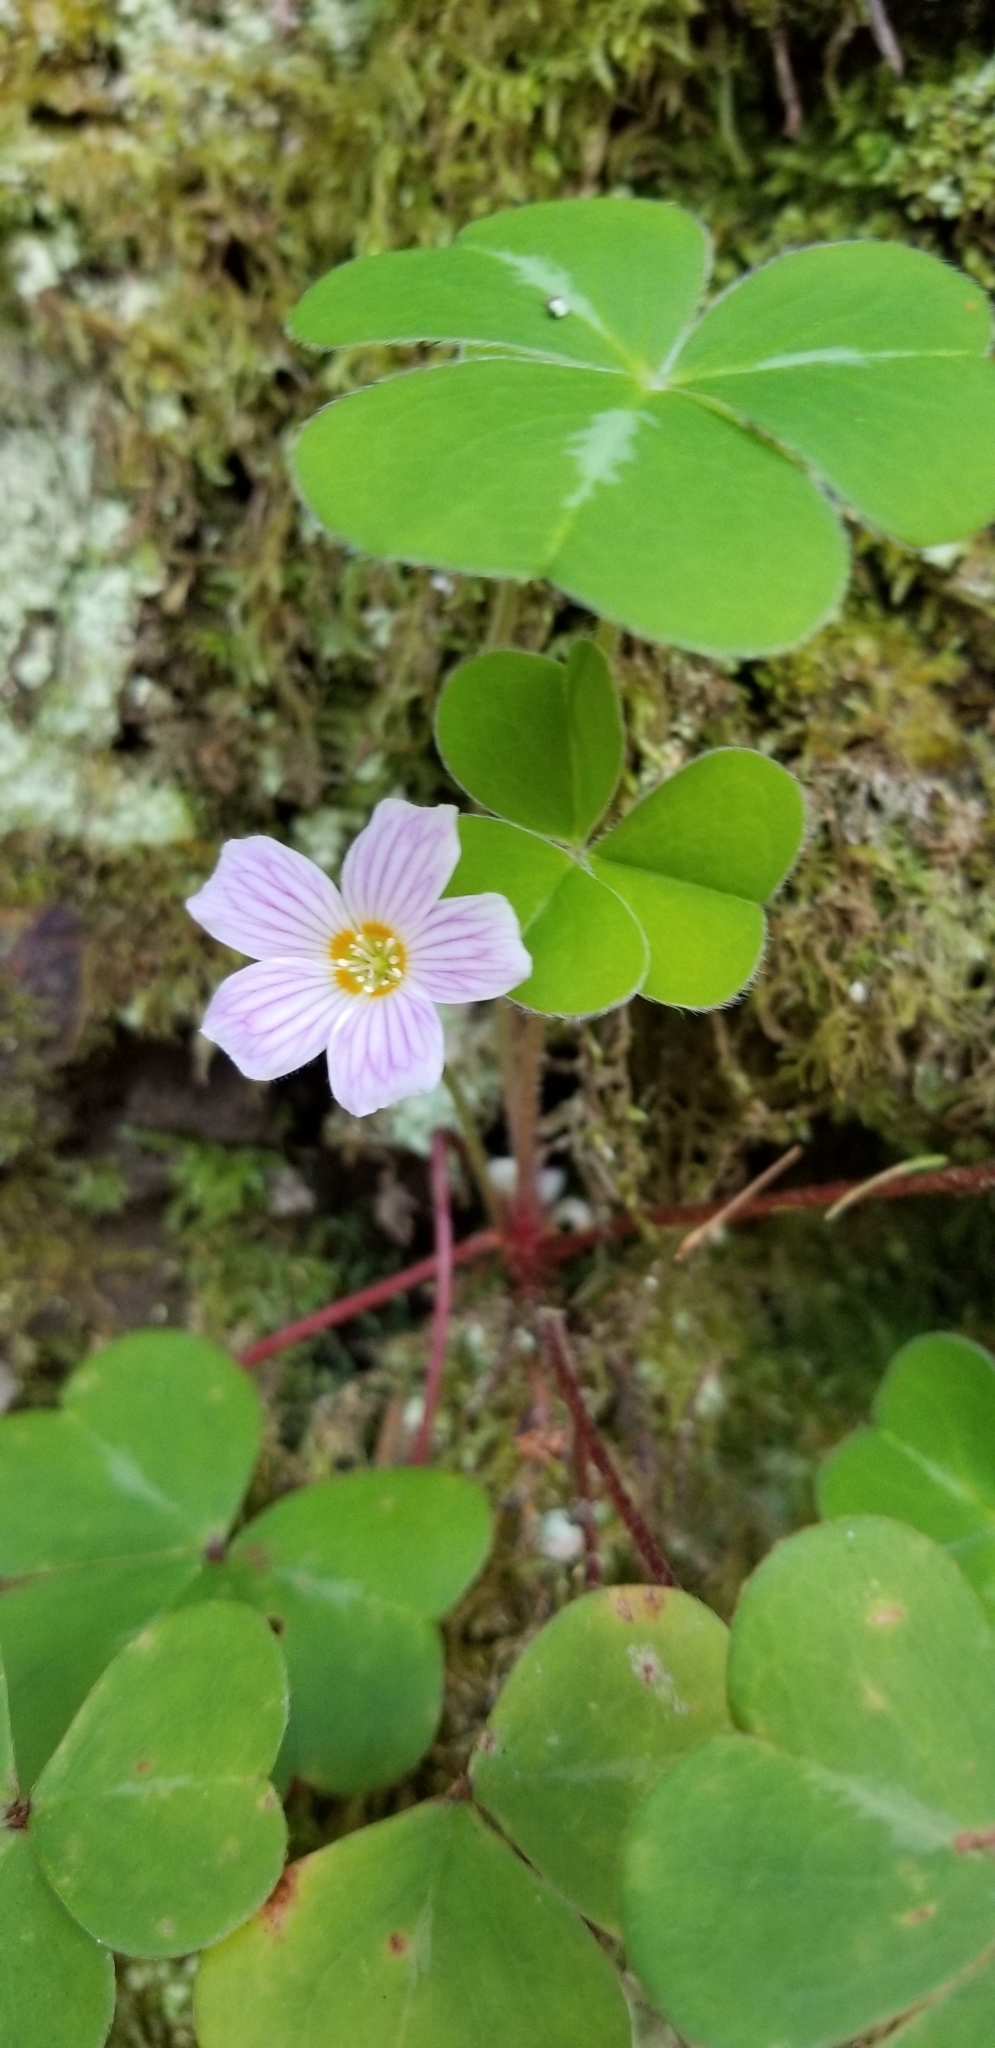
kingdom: Plantae
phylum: Tracheophyta
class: Magnoliopsida
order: Oxalidales
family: Oxalidaceae
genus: Oxalis
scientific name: Oxalis oregana
